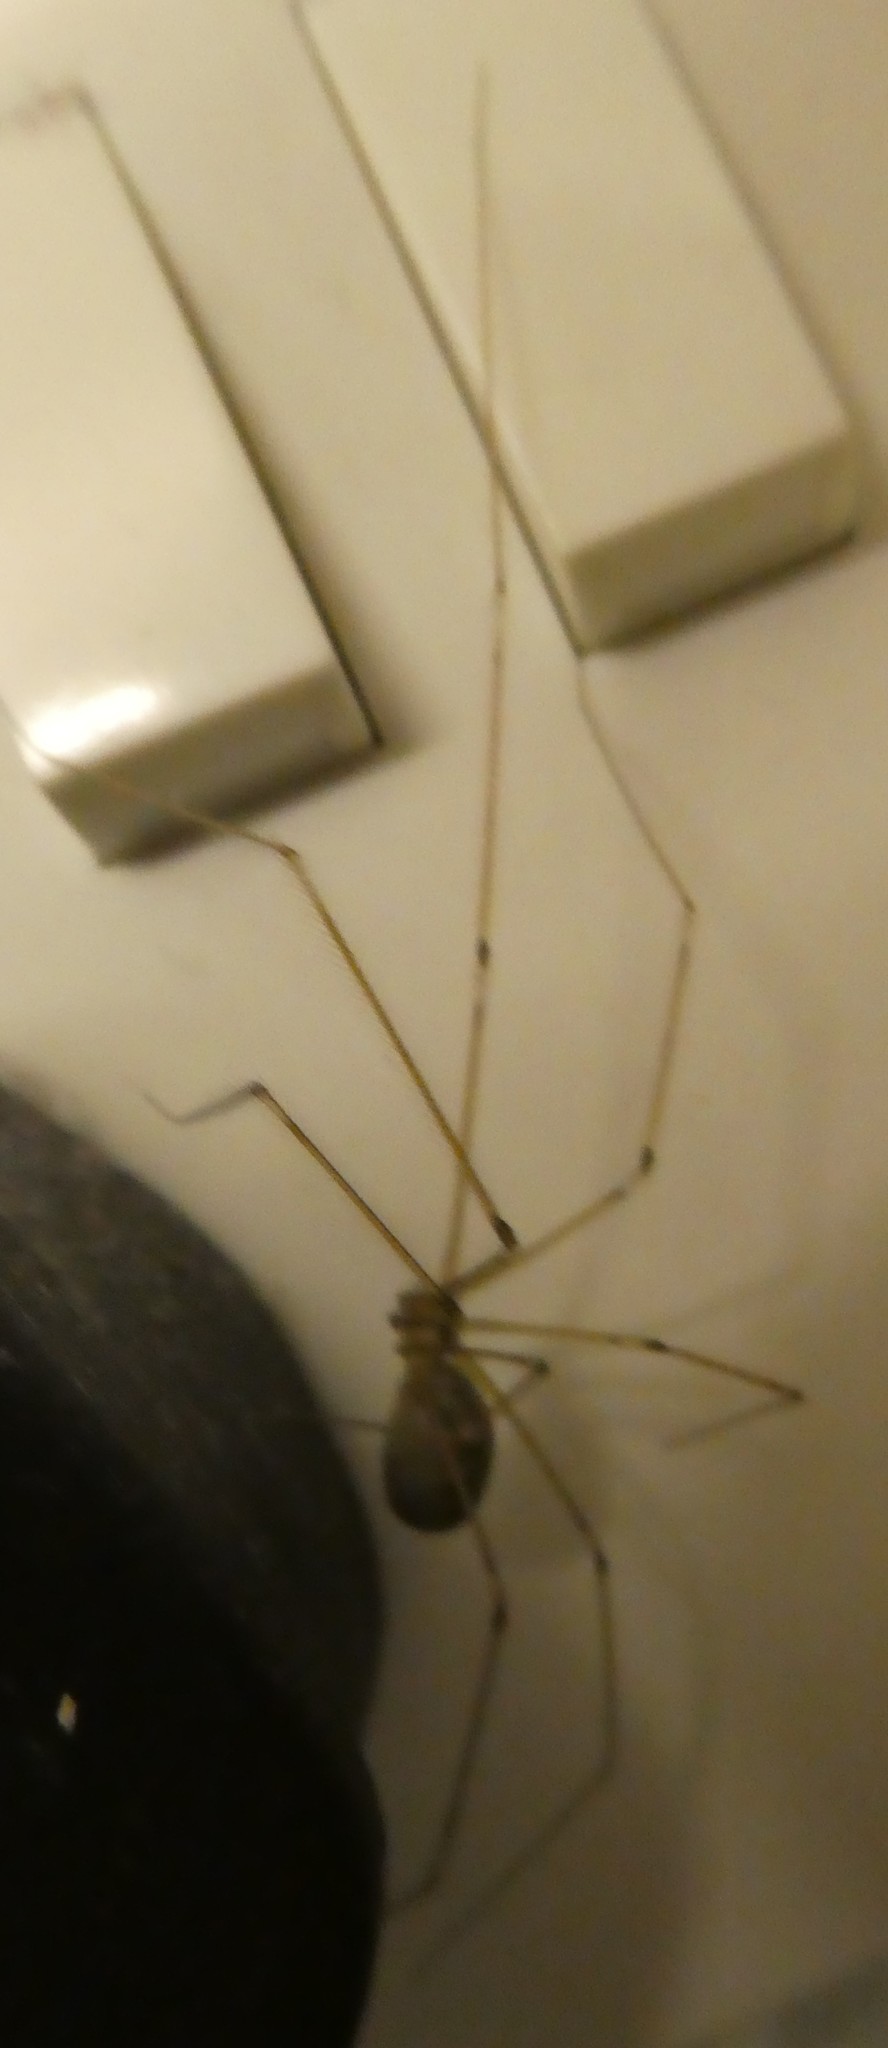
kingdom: Animalia
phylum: Arthropoda
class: Arachnida
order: Araneae
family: Pholcidae
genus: Pholcus
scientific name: Pholcus phalangioides
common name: Longbodied cellar spider
